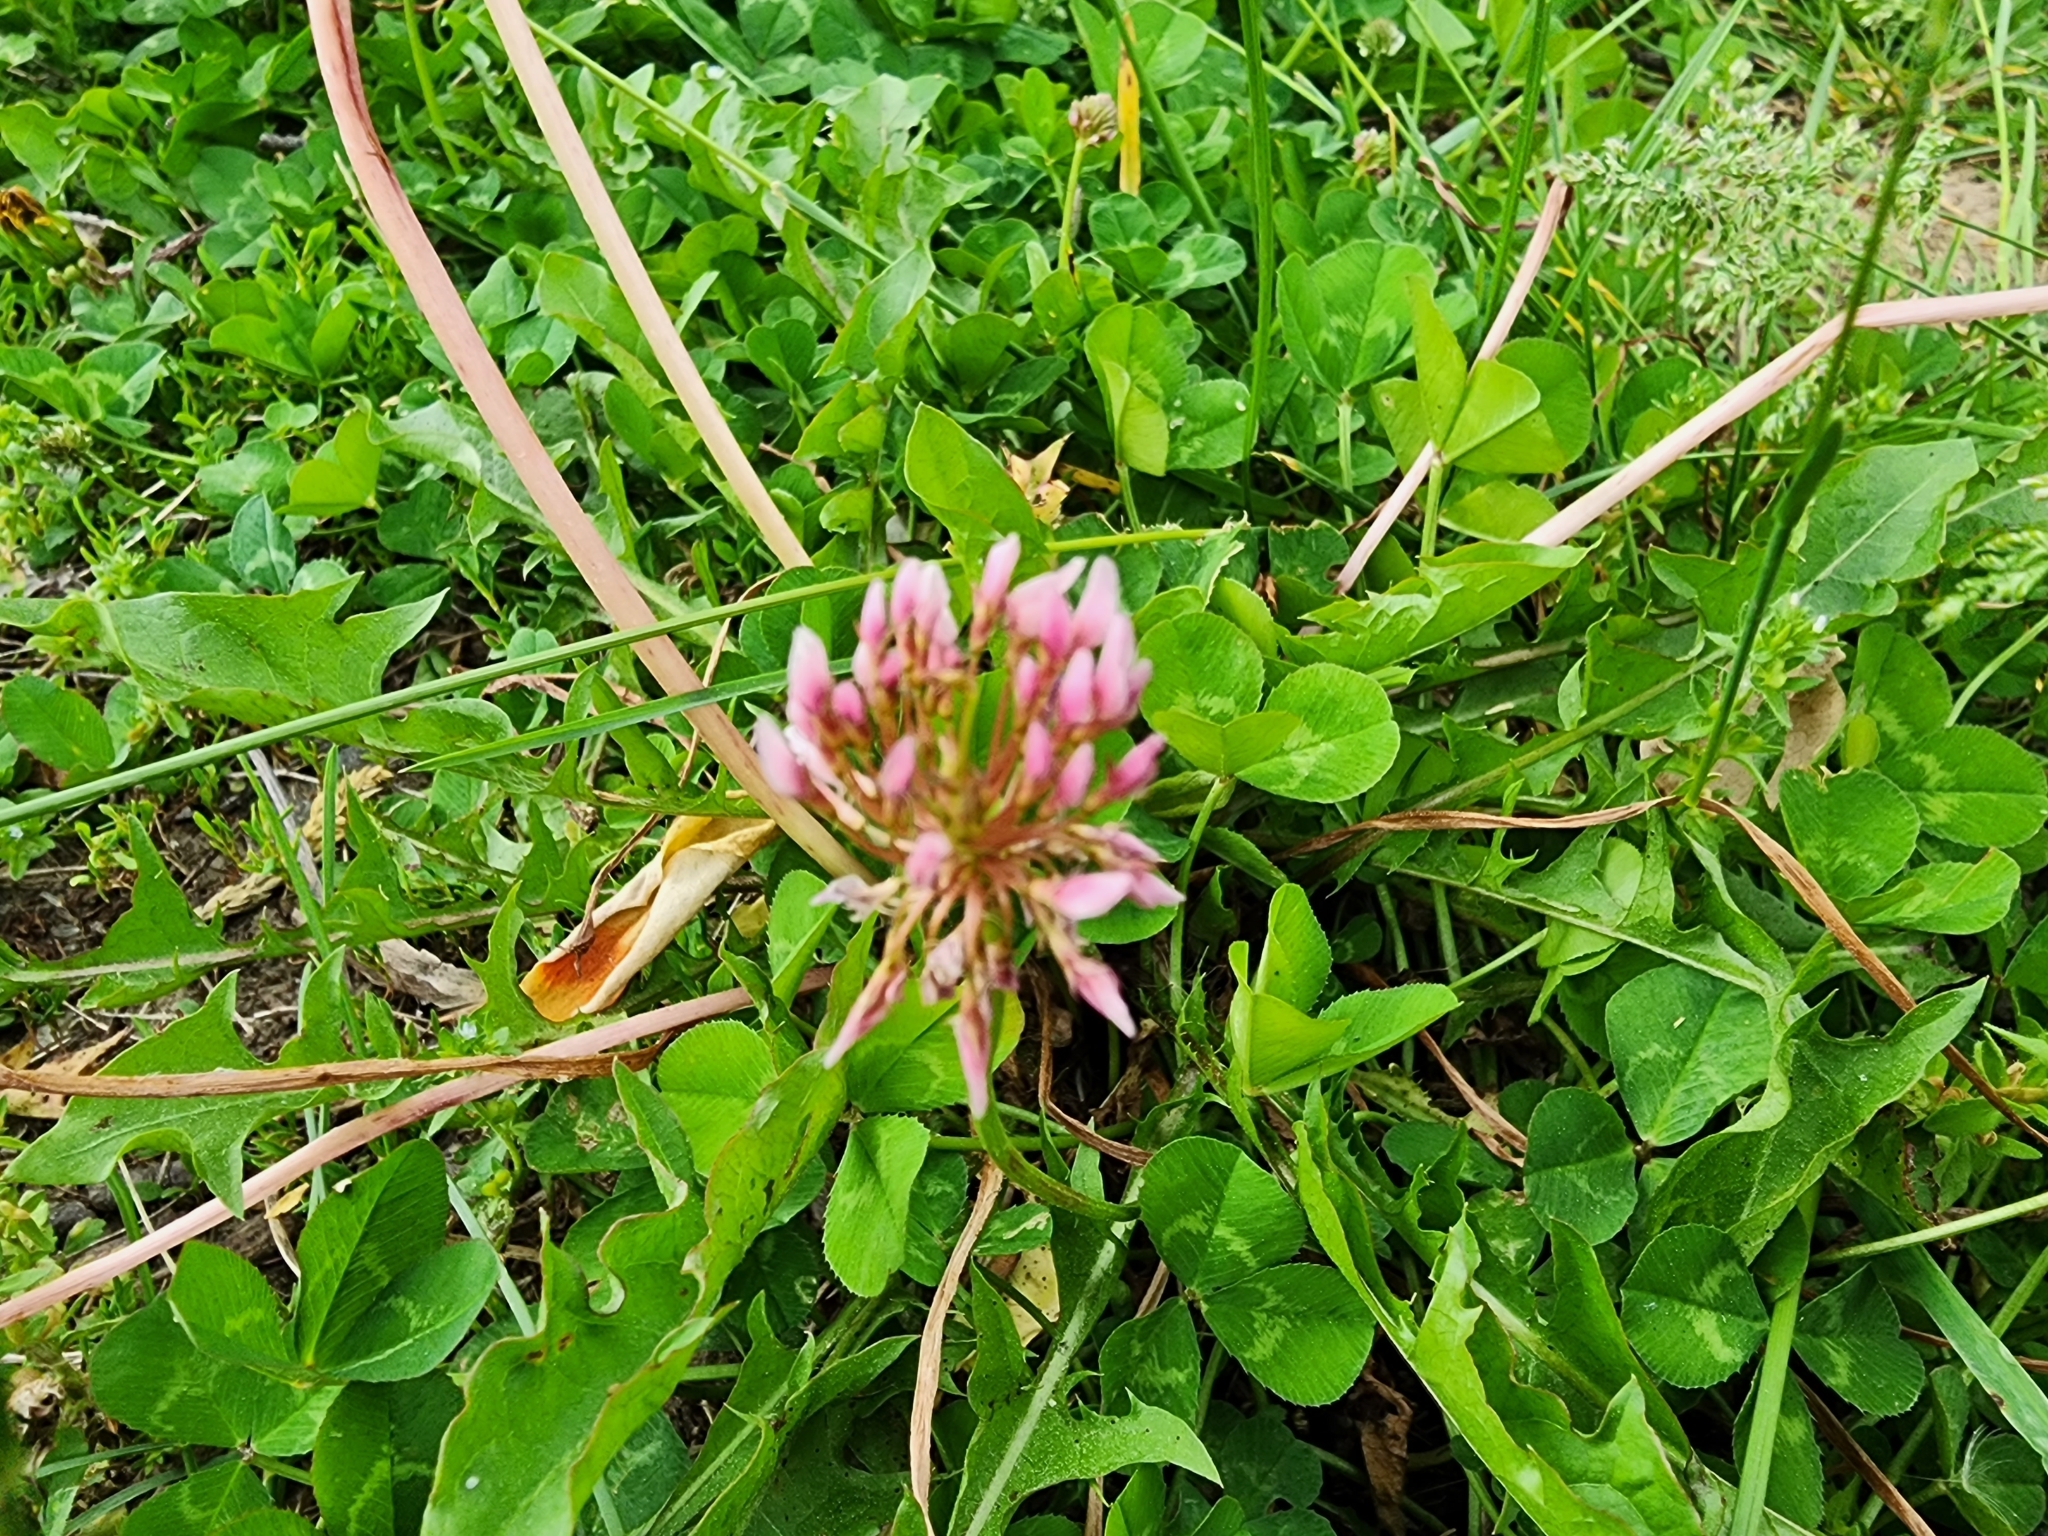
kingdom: Plantae
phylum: Tracheophyta
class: Magnoliopsida
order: Fabales
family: Fabaceae
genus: Trifolium
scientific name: Trifolium repens
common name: White clover
